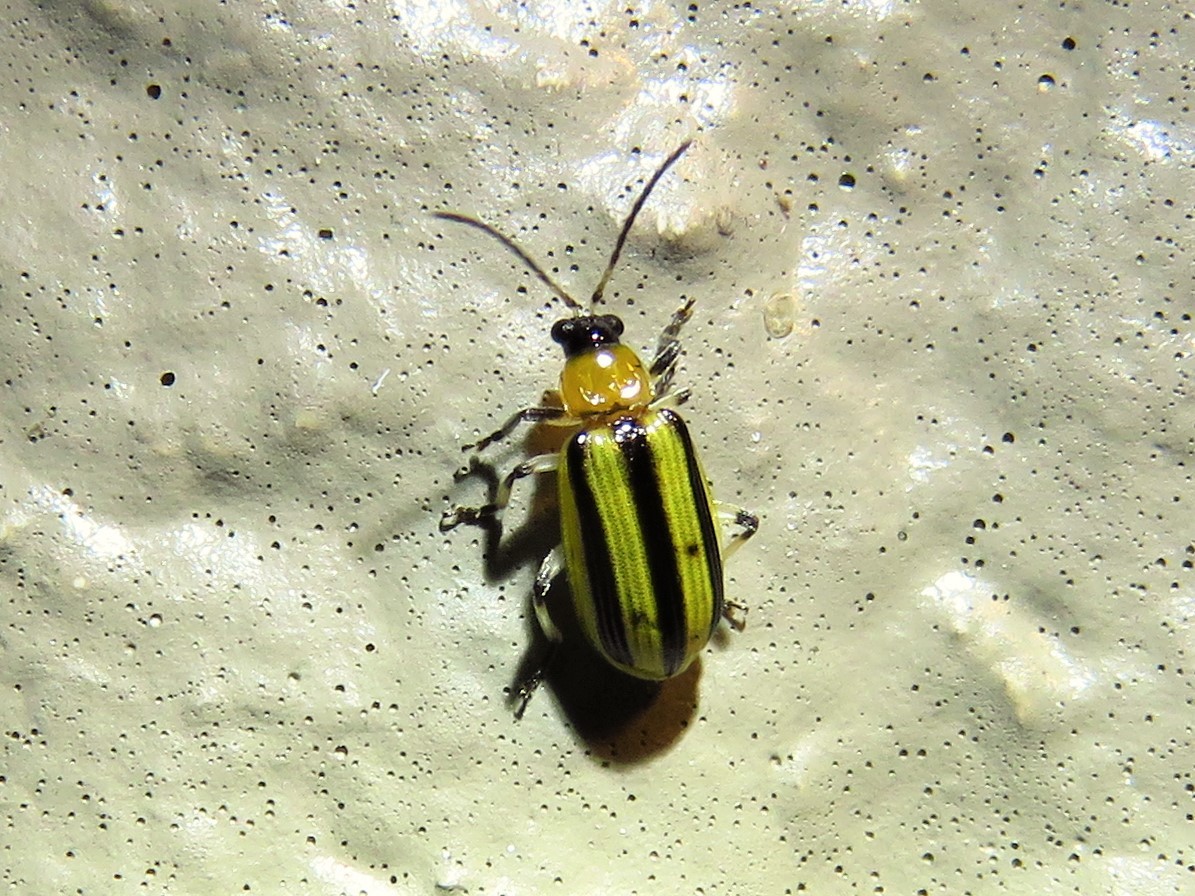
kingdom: Animalia
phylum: Arthropoda
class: Insecta
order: Coleoptera
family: Chrysomelidae
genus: Acalymma
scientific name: Acalymma vittatum
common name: Striped cucumber beetle
